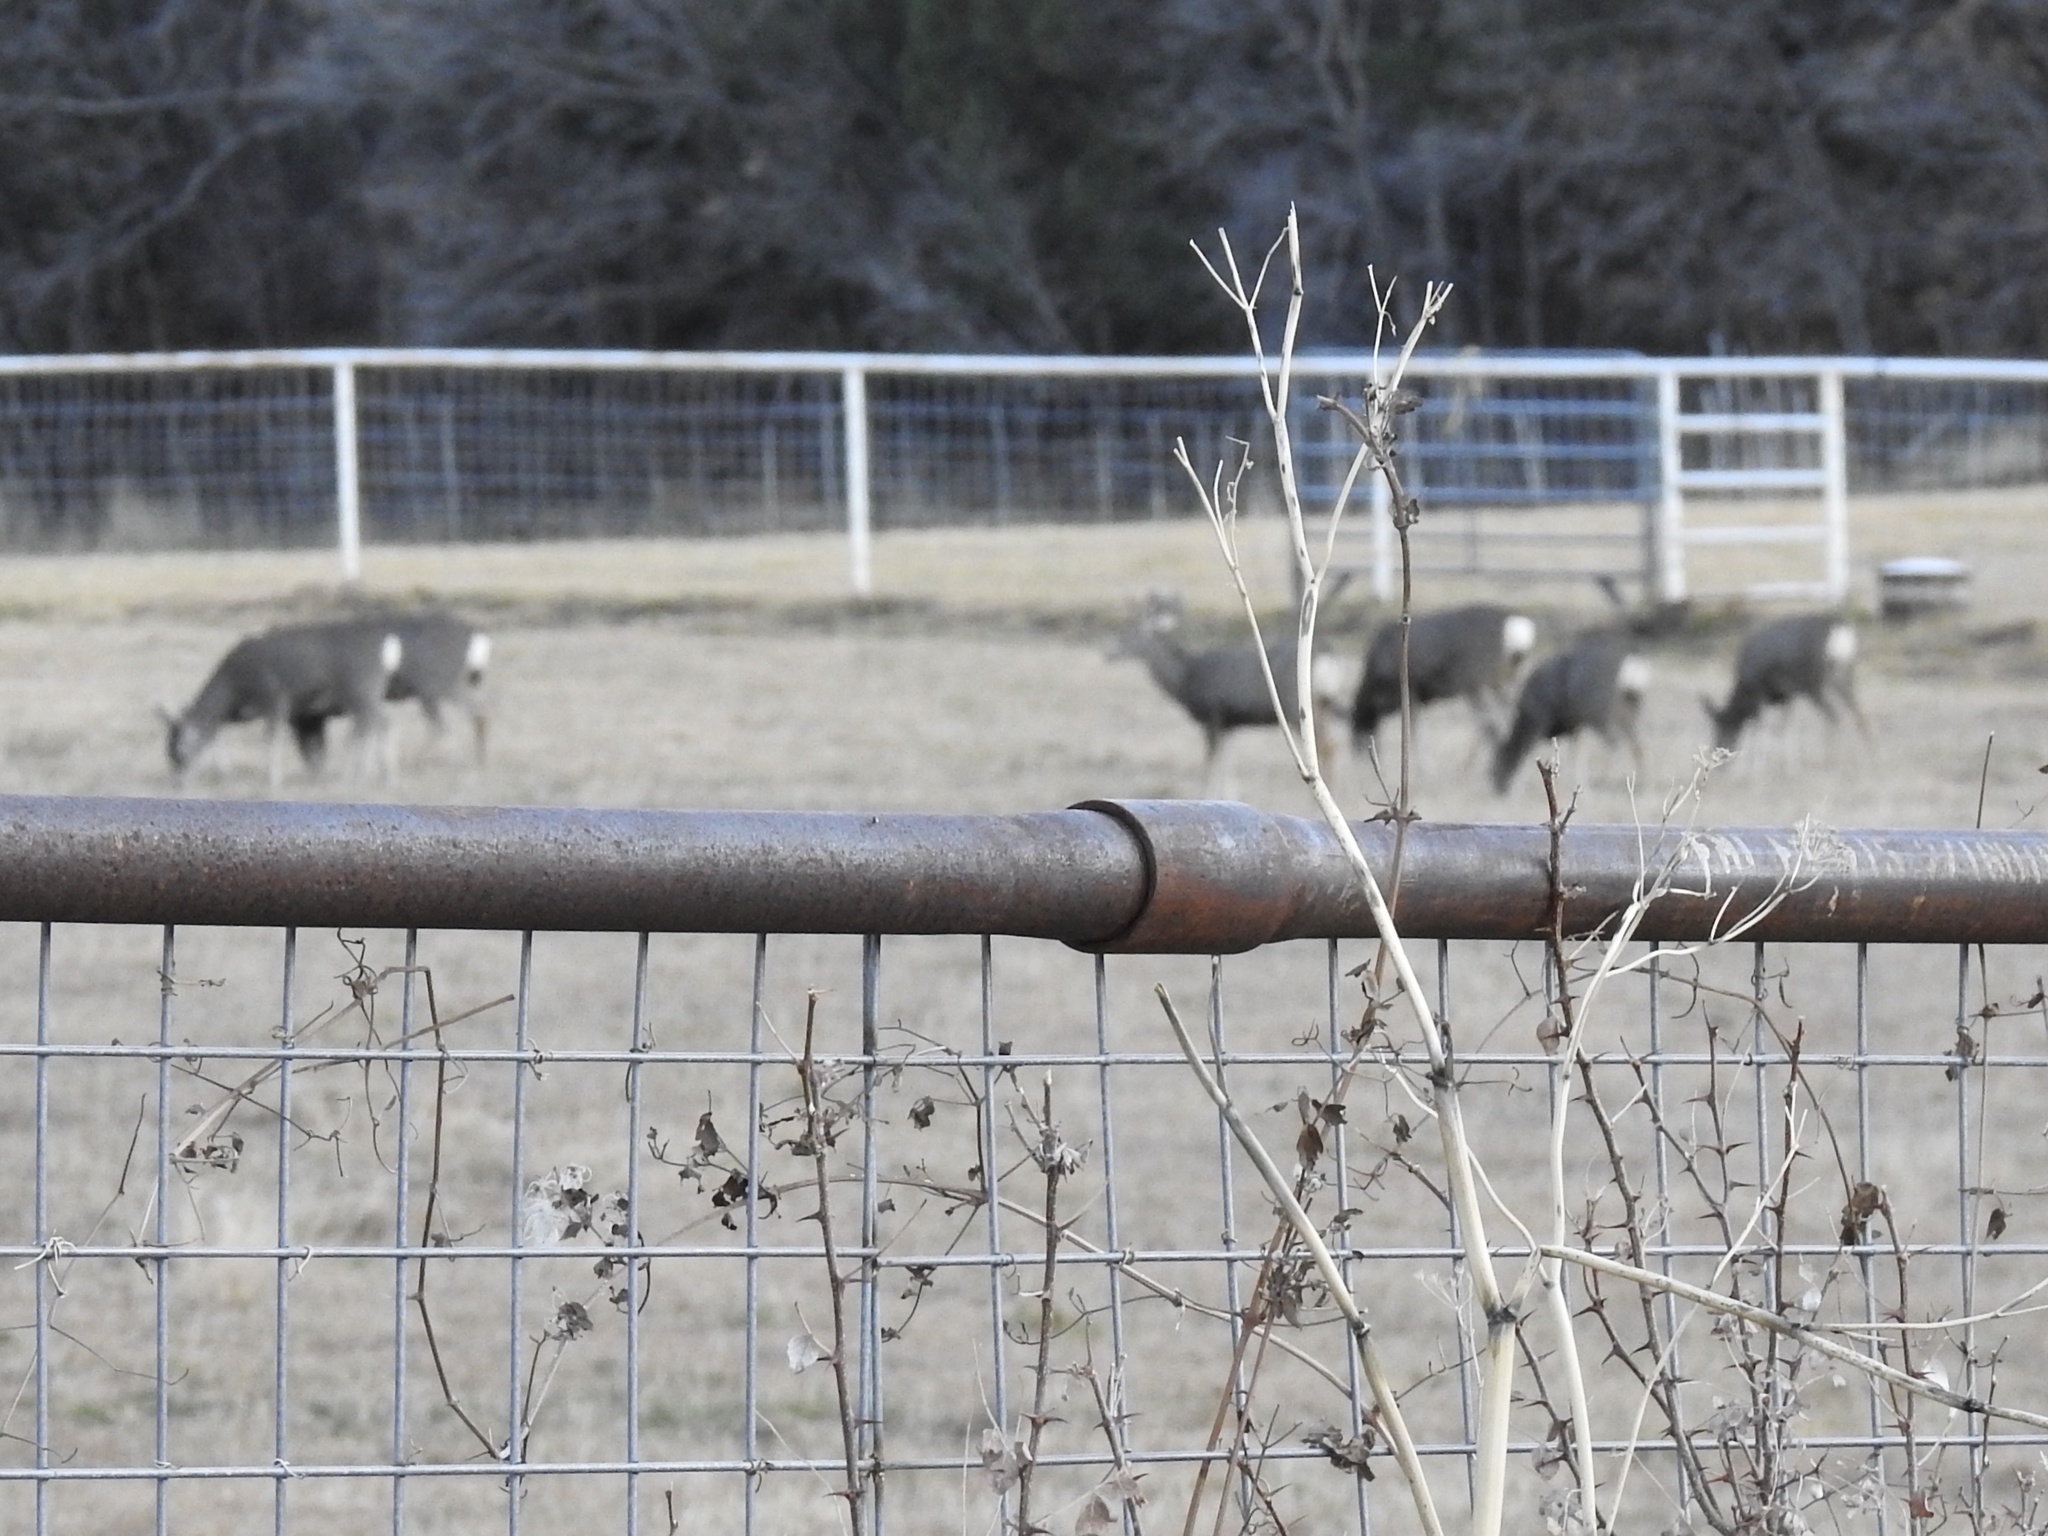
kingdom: Animalia
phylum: Chordata
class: Mammalia
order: Artiodactyla
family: Cervidae
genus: Odocoileus
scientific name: Odocoileus hemionus
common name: Mule deer
